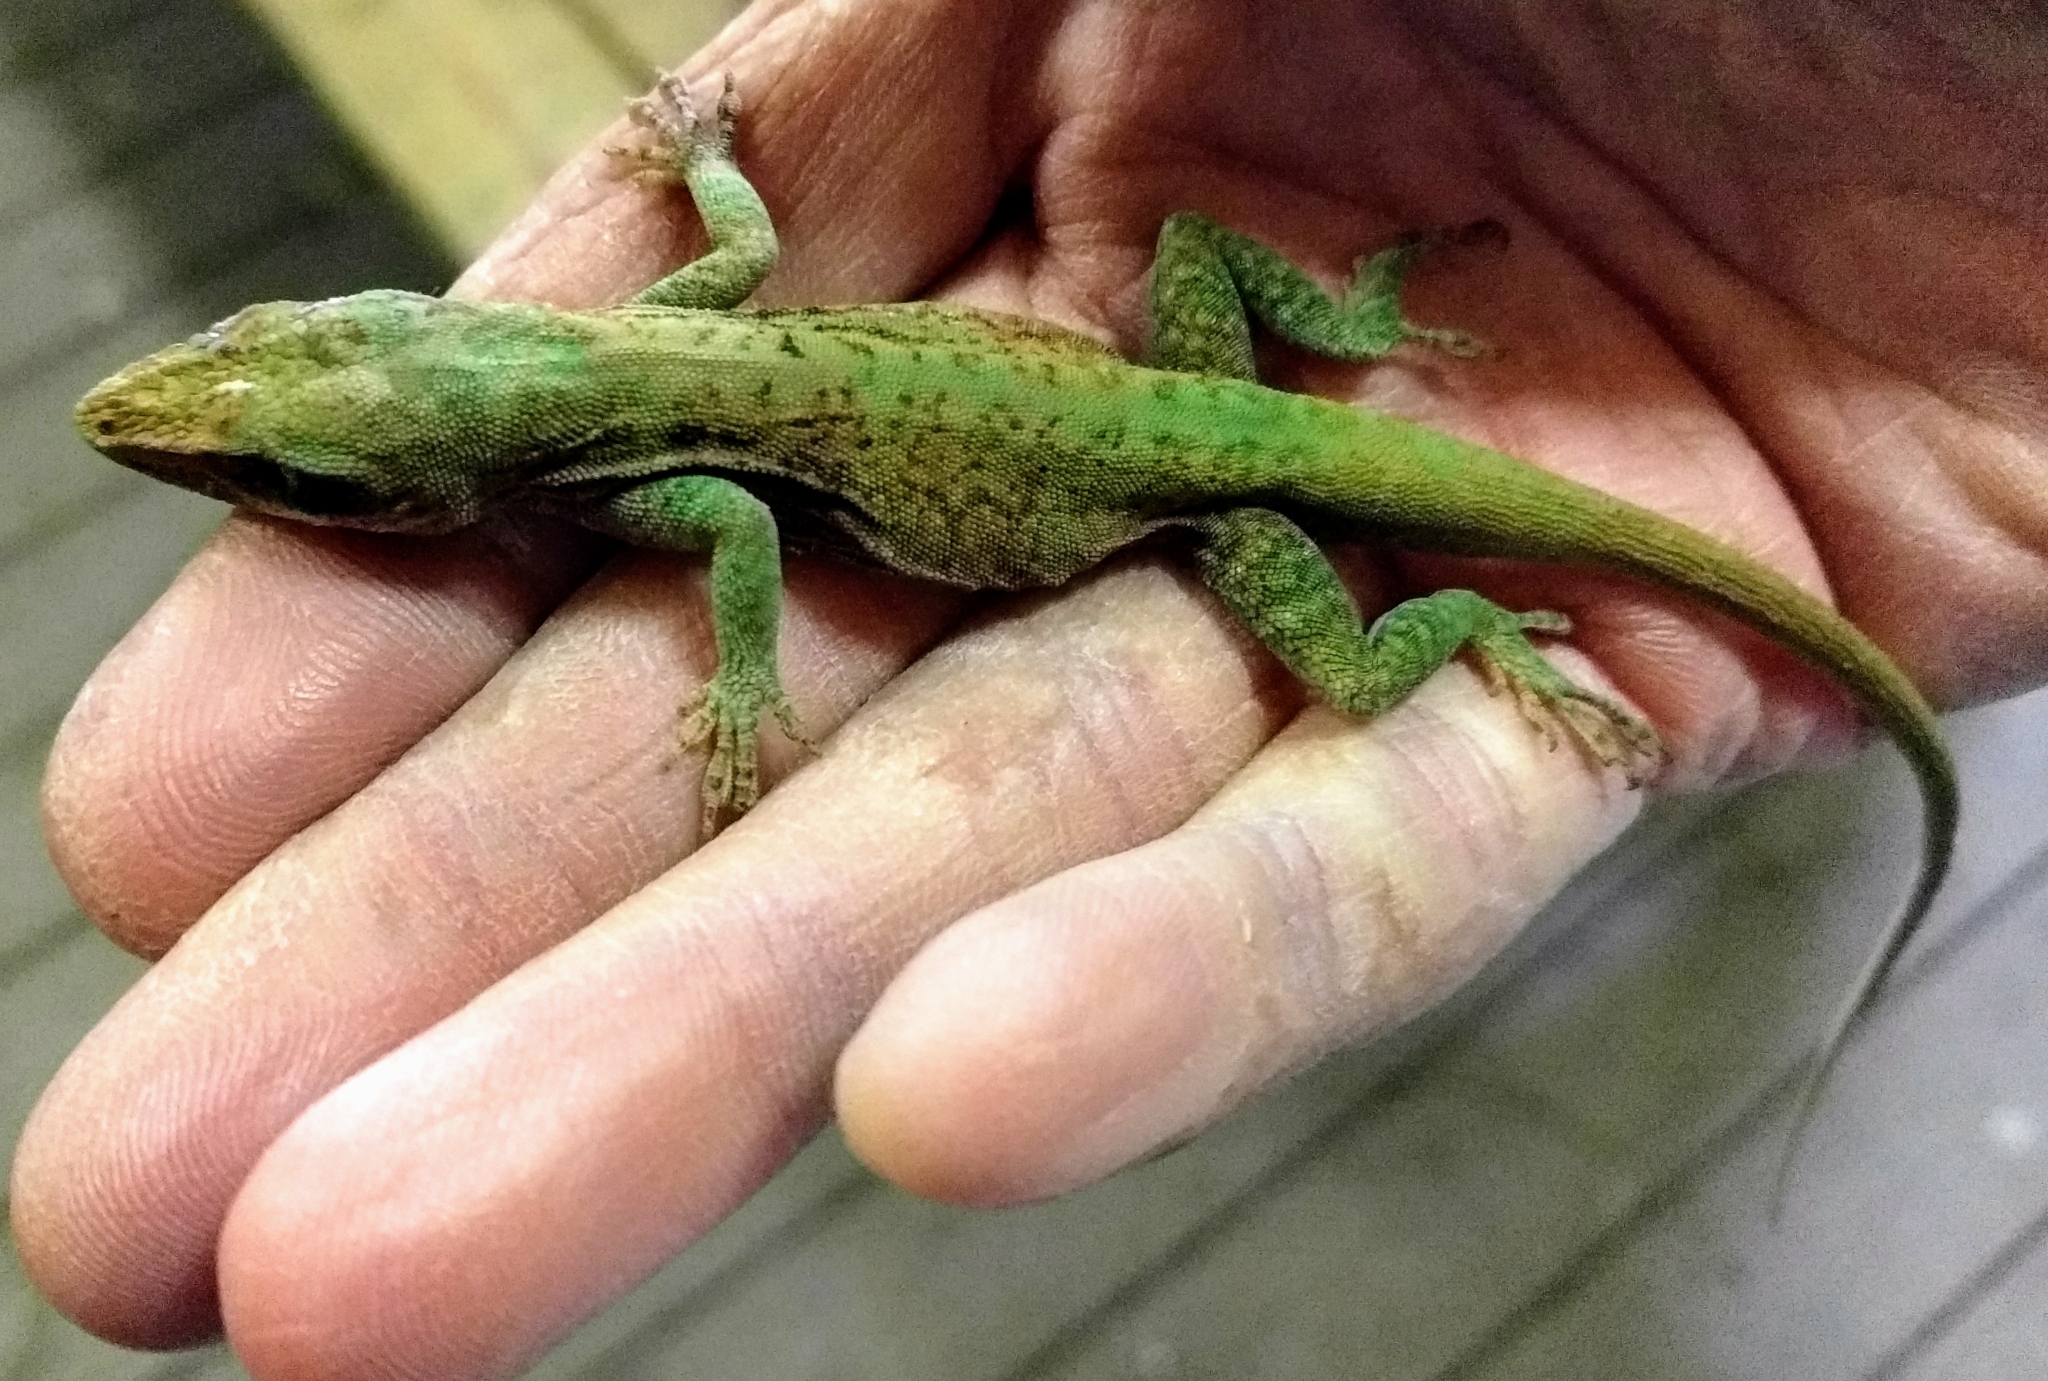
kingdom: Animalia
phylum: Chordata
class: Squamata
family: Dactyloidae
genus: Anolis
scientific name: Anolis carolinensis
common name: Green anole
